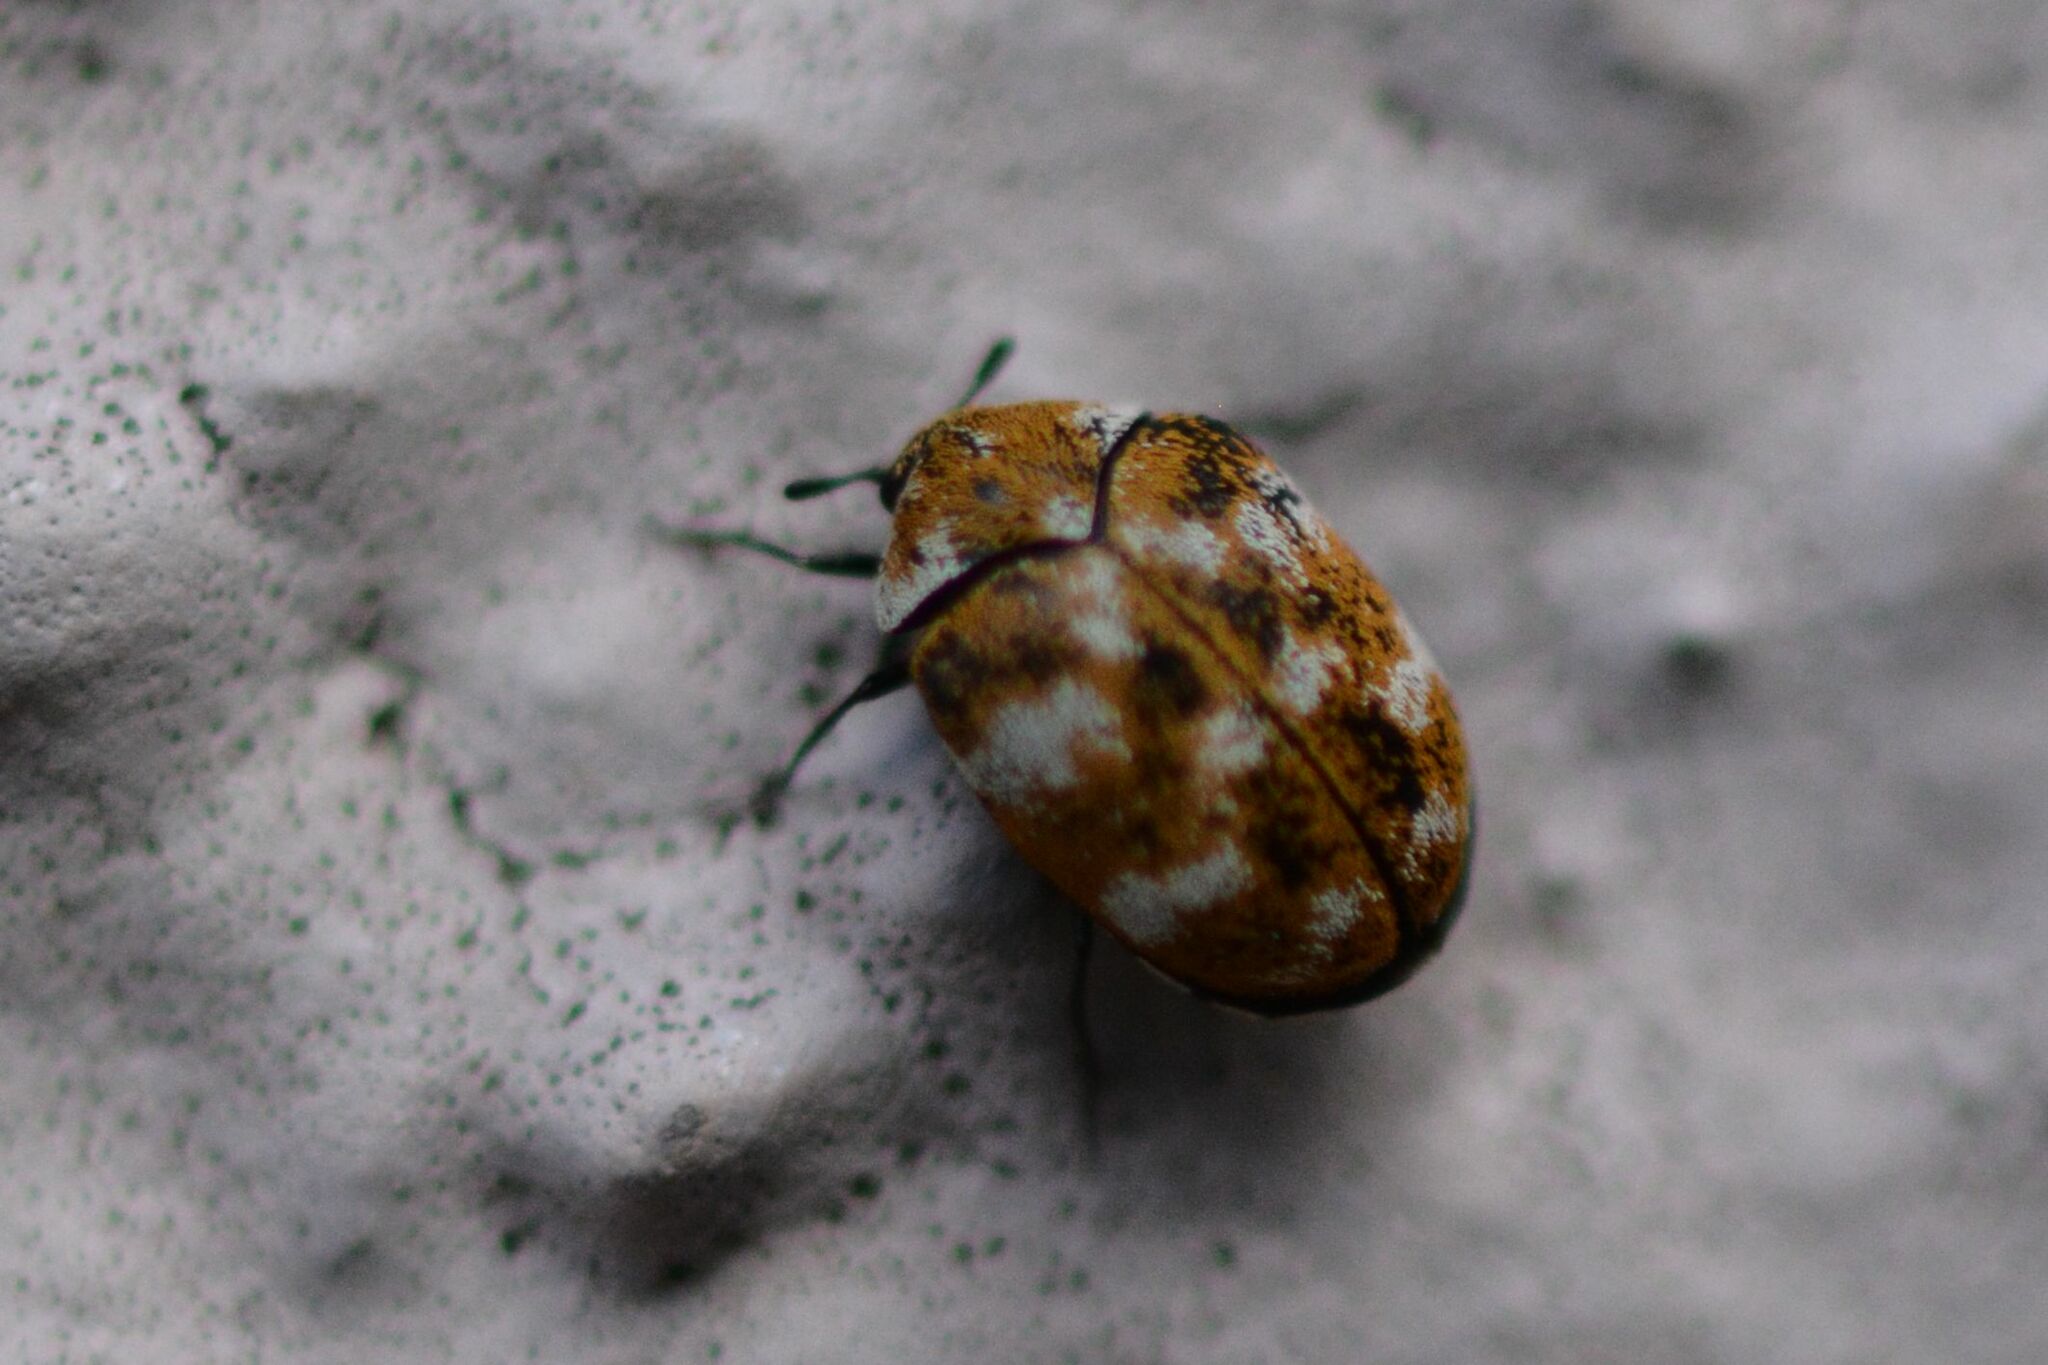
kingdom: Animalia
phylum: Arthropoda
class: Insecta
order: Coleoptera
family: Dermestidae
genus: Anthrenus
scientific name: Anthrenus verbasci
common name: Varied carpet beetle
